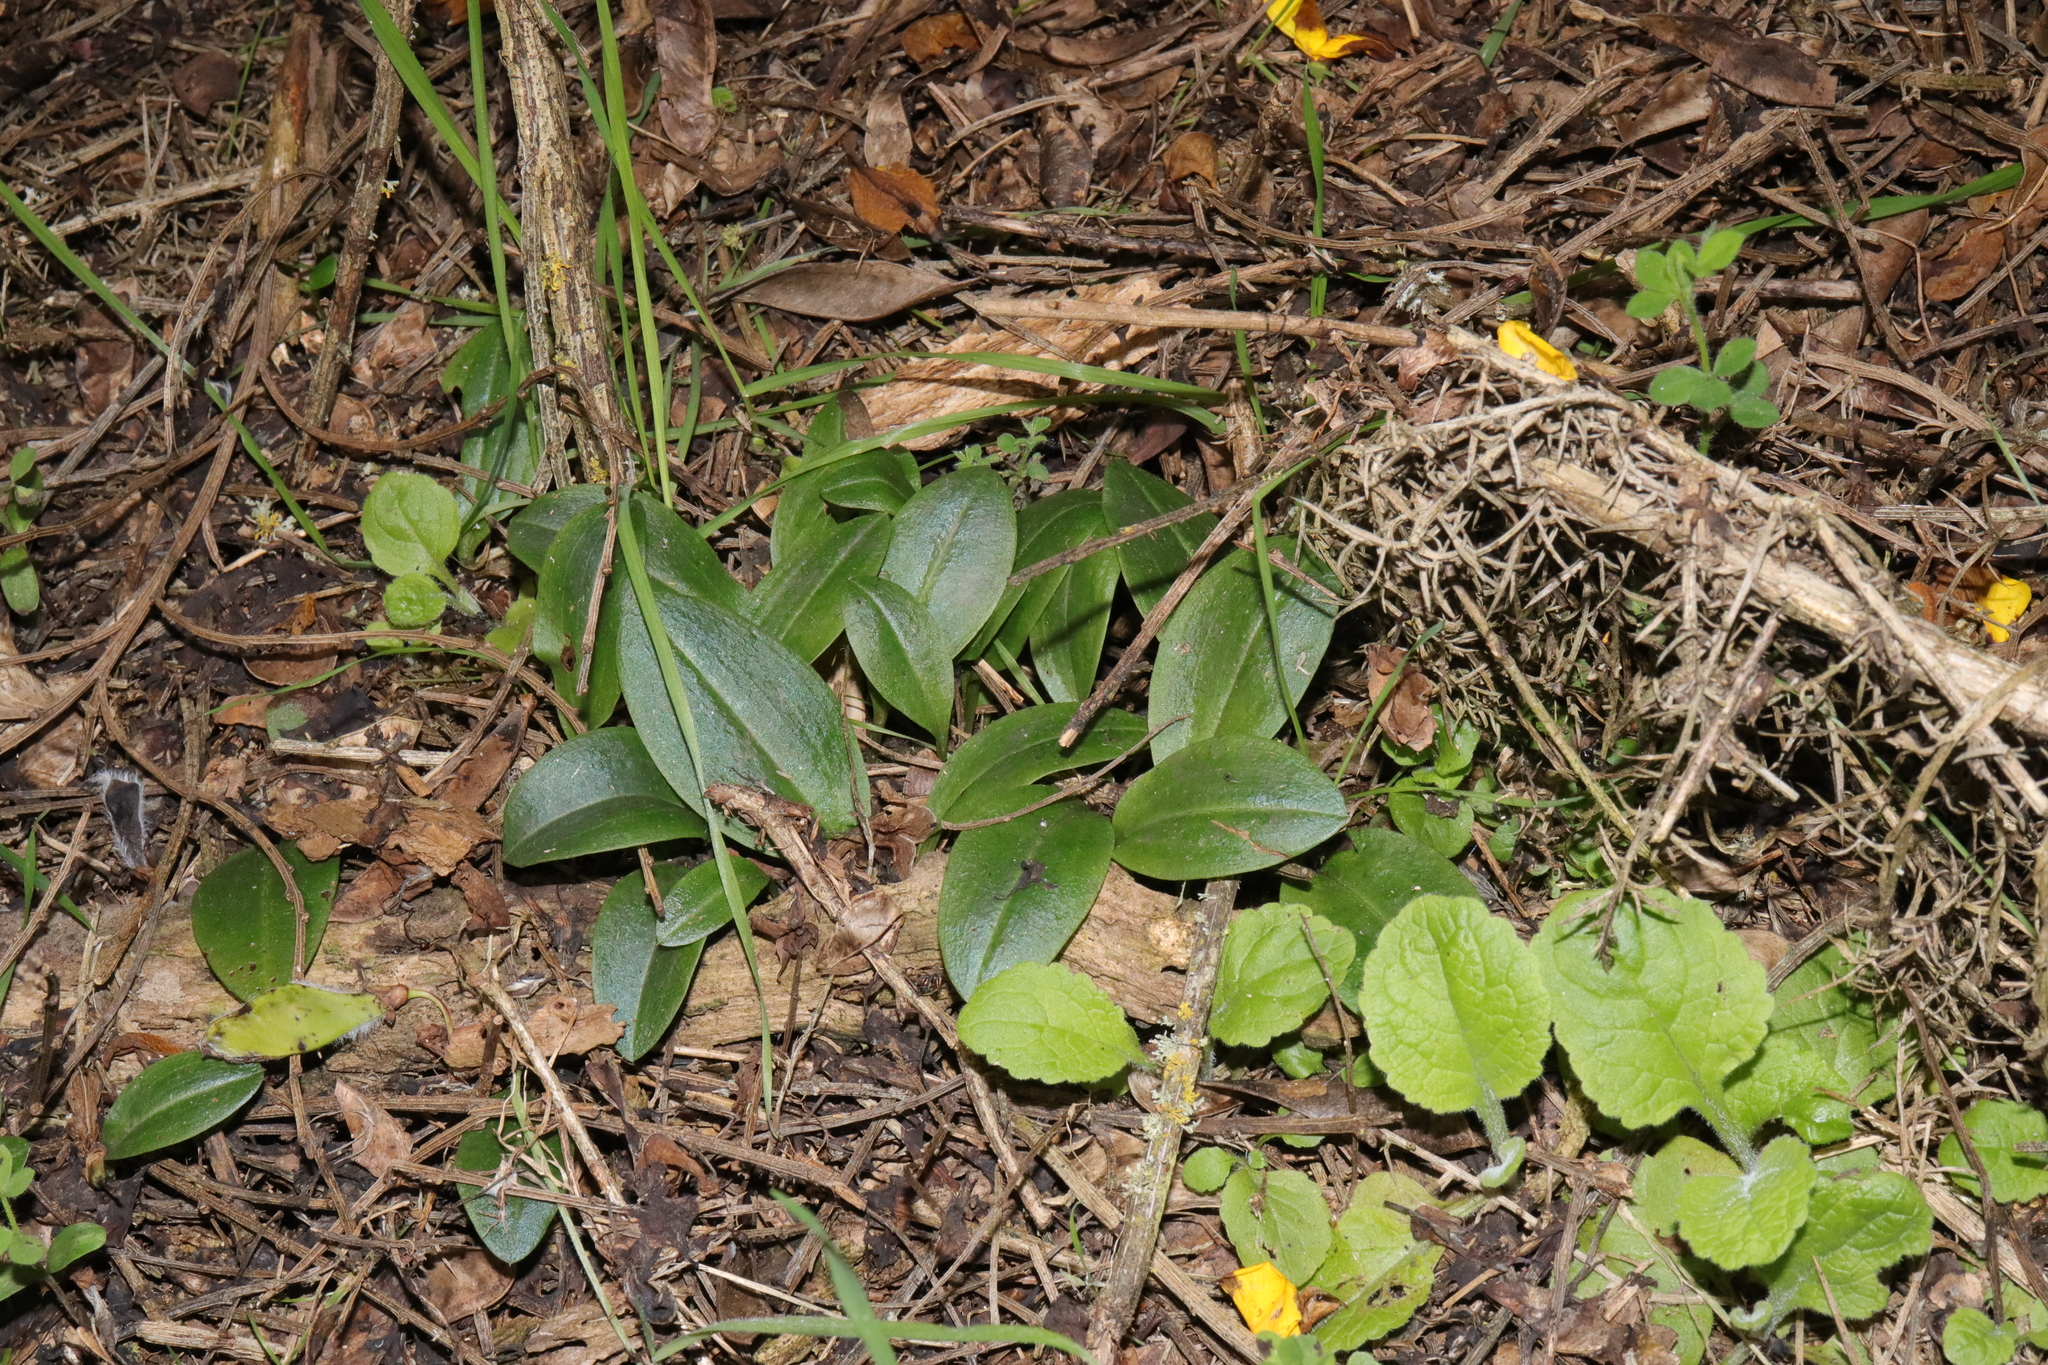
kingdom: Plantae
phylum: Tracheophyta
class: Liliopsida
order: Asparagales
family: Orchidaceae
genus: Chiloglottis
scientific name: Chiloglottis cornuta
